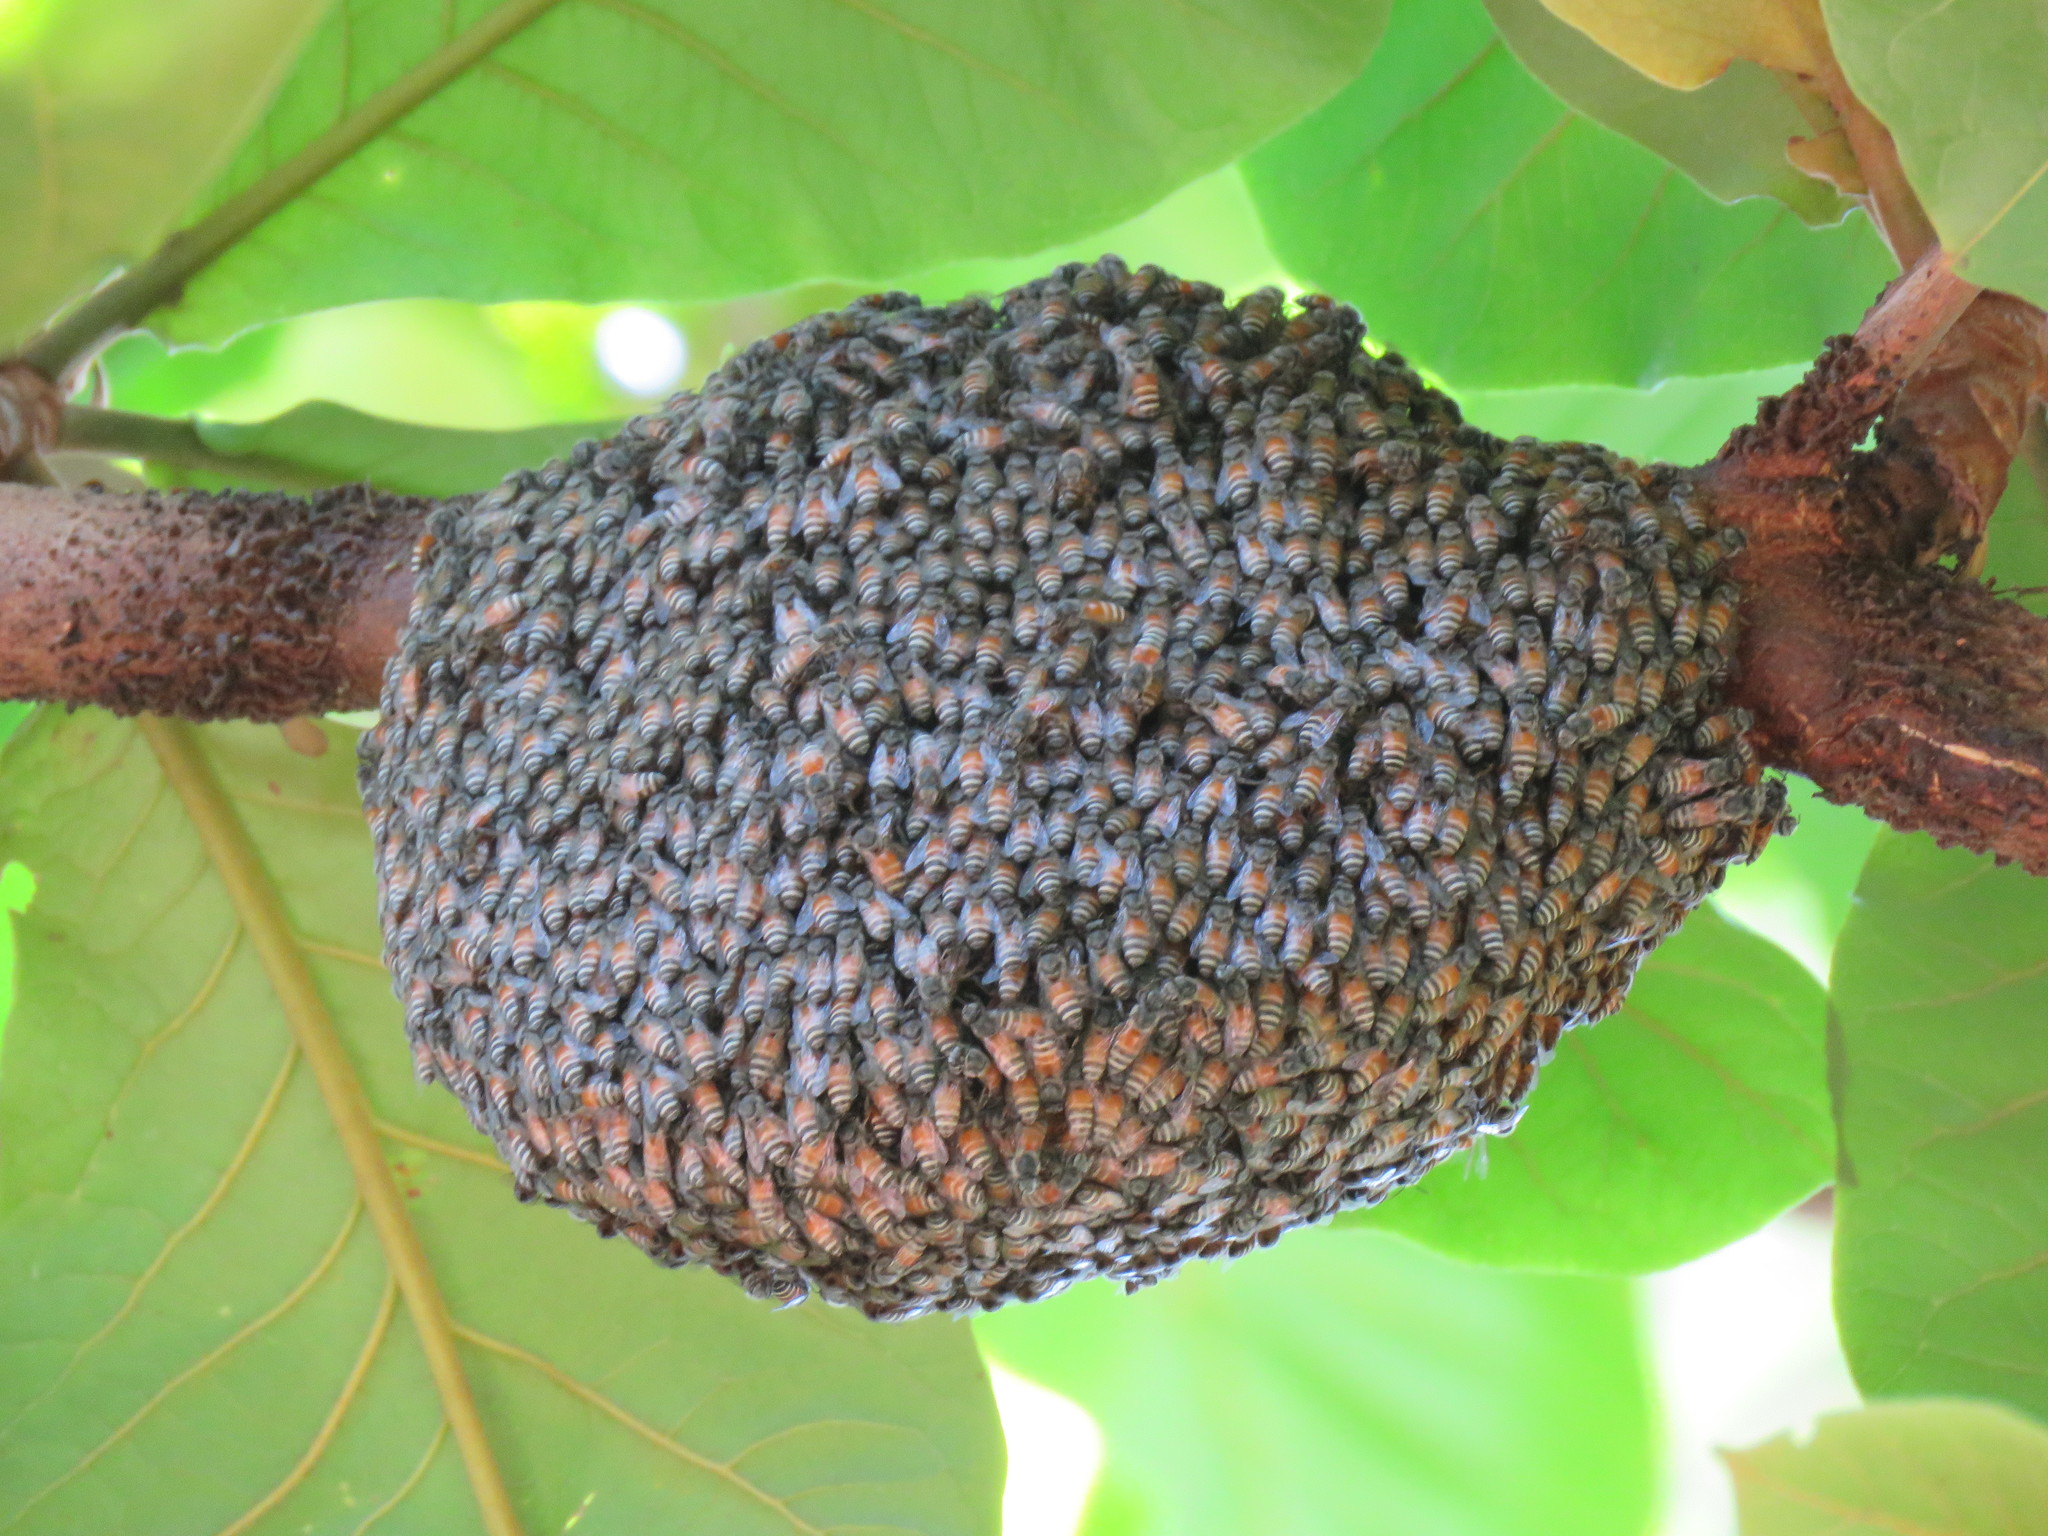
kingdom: Animalia
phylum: Arthropoda
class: Insecta
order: Hymenoptera
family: Apidae
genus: Apis
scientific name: Apis florea
